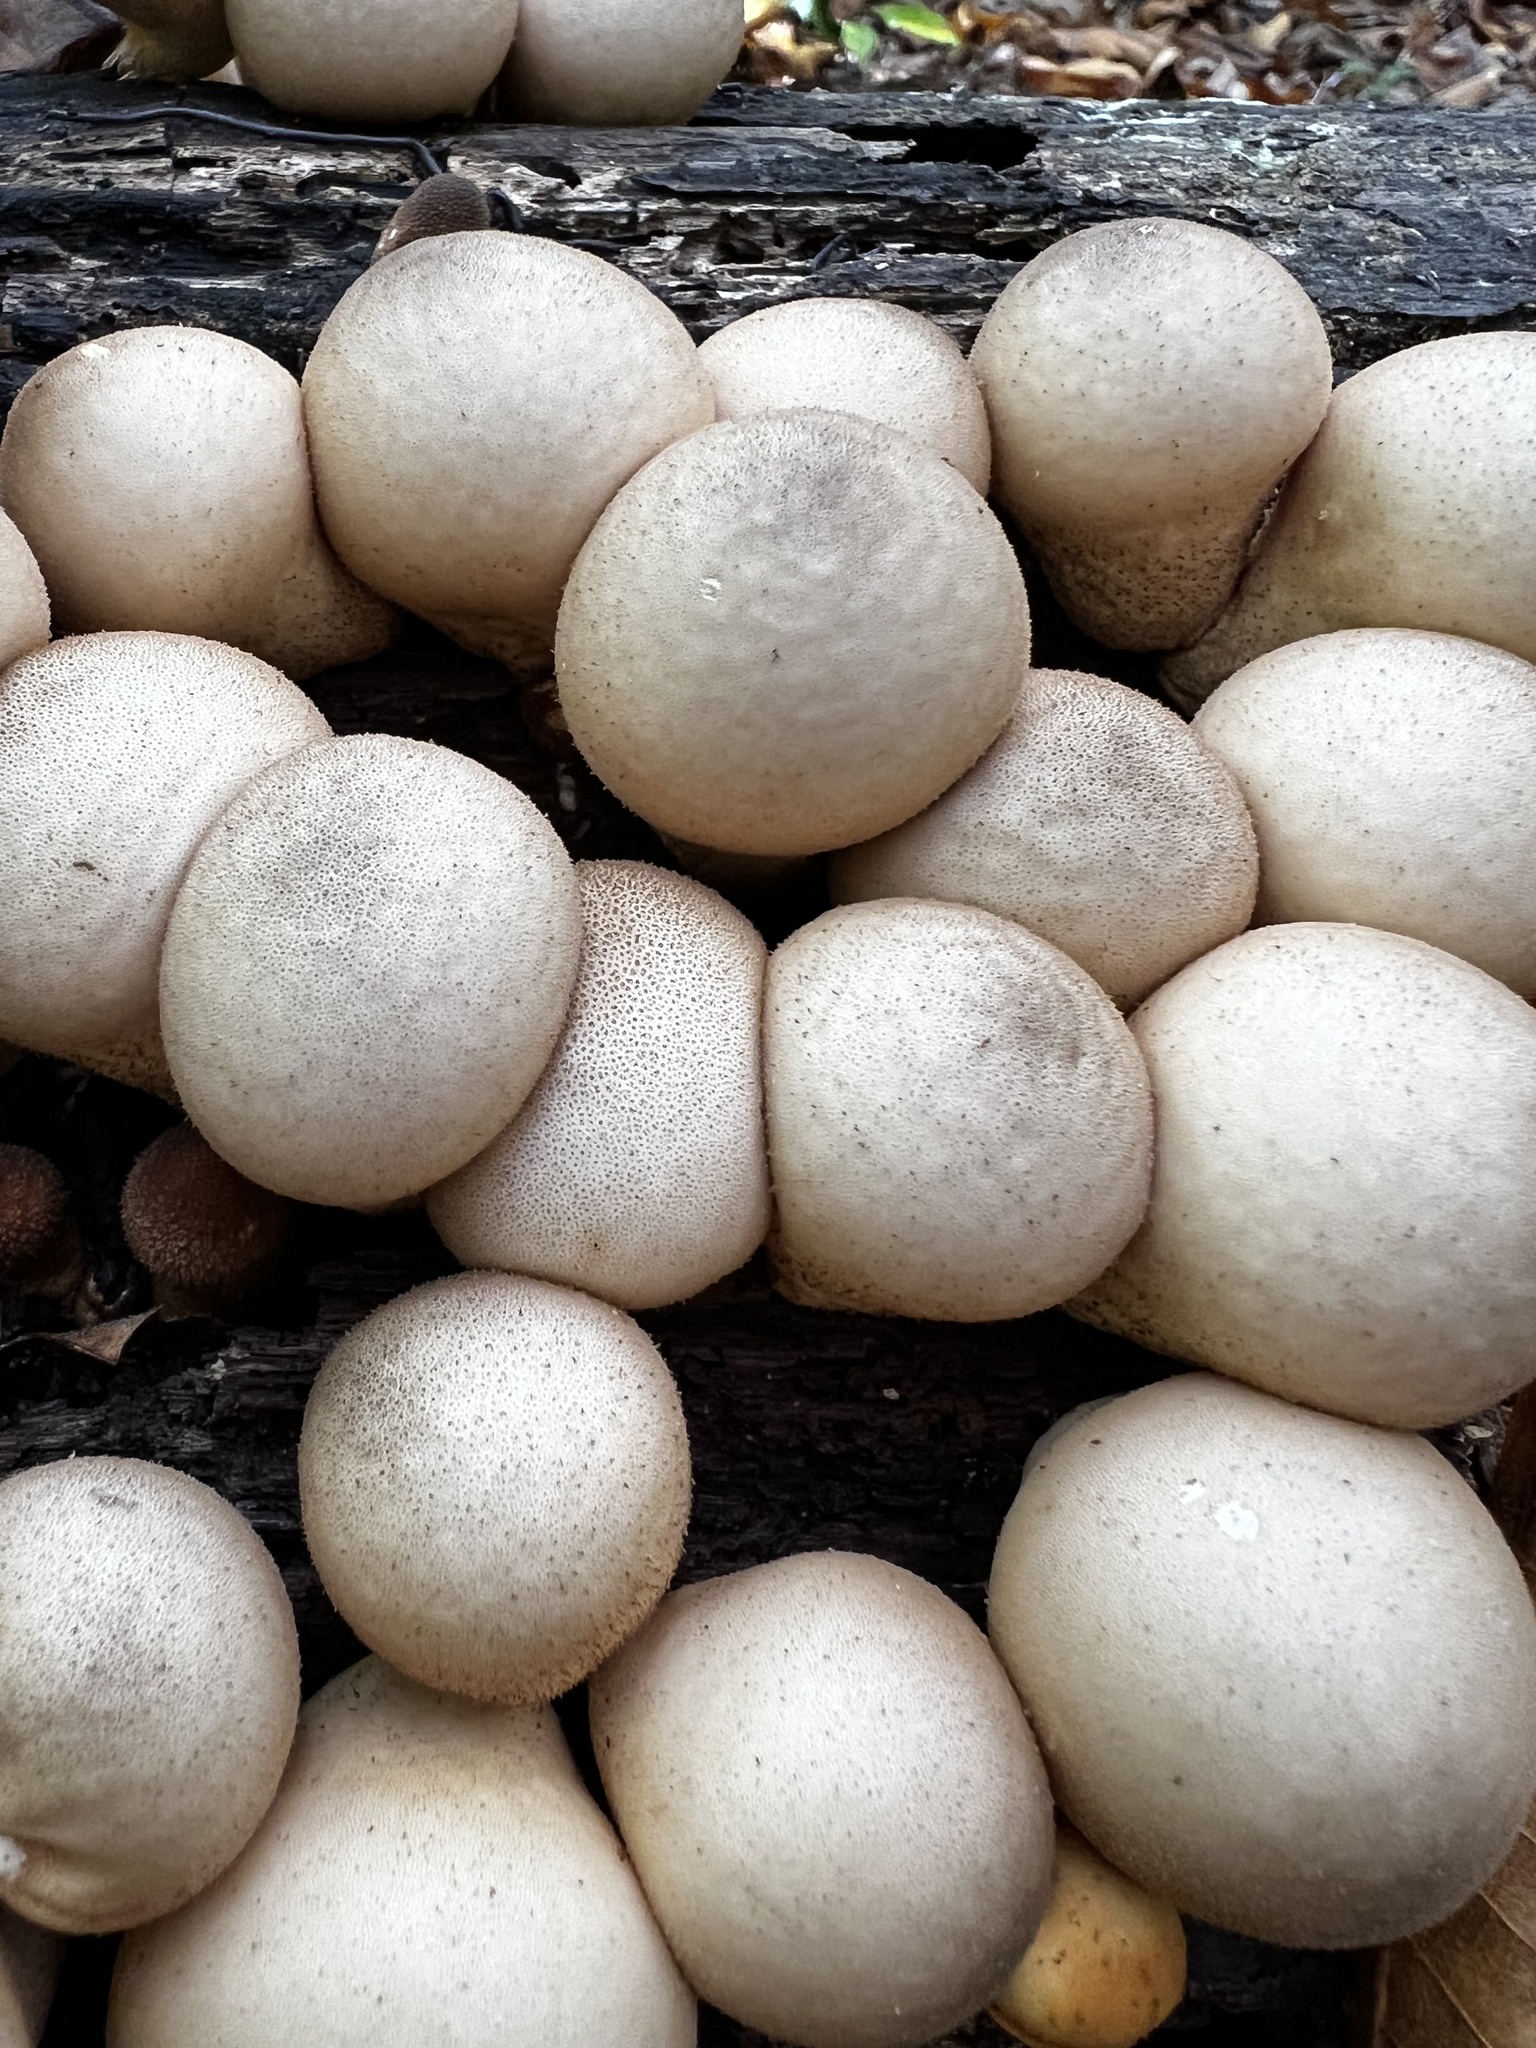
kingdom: Fungi
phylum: Basidiomycota
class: Agaricomycetes
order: Agaricales
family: Lycoperdaceae
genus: Apioperdon
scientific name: Apioperdon pyriforme
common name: Pear-shaped puffball
